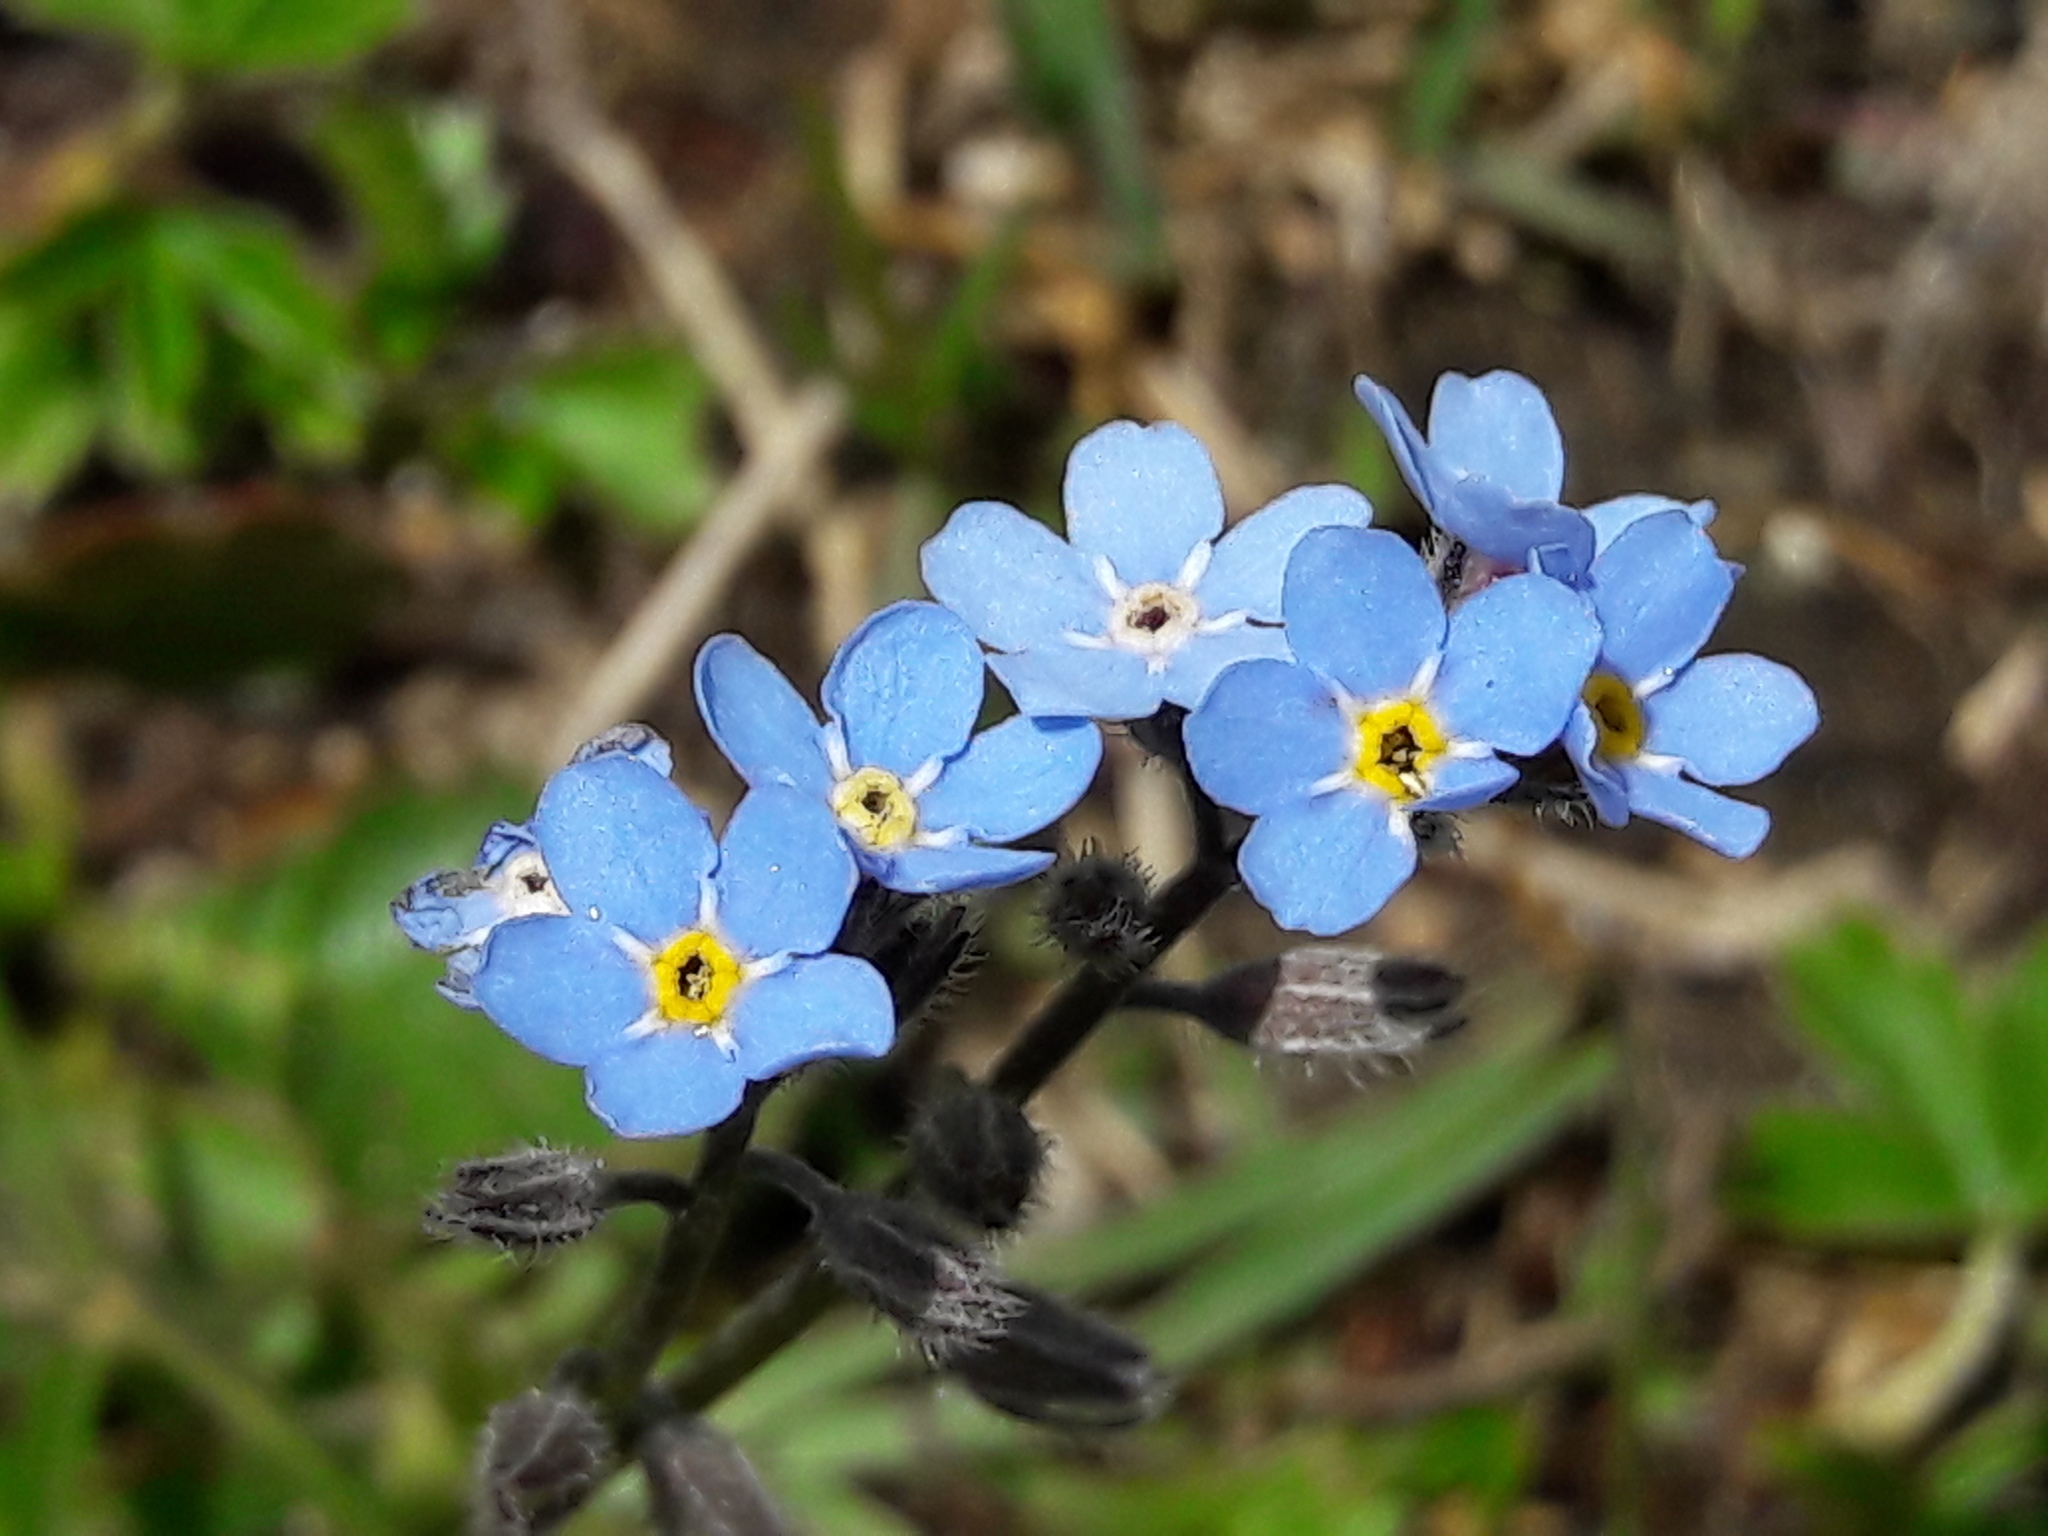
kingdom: Plantae
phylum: Tracheophyta
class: Magnoliopsida
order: Boraginales
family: Boraginaceae
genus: Myosotis
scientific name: Myosotis alpestris
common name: Alpine forget-me-not
